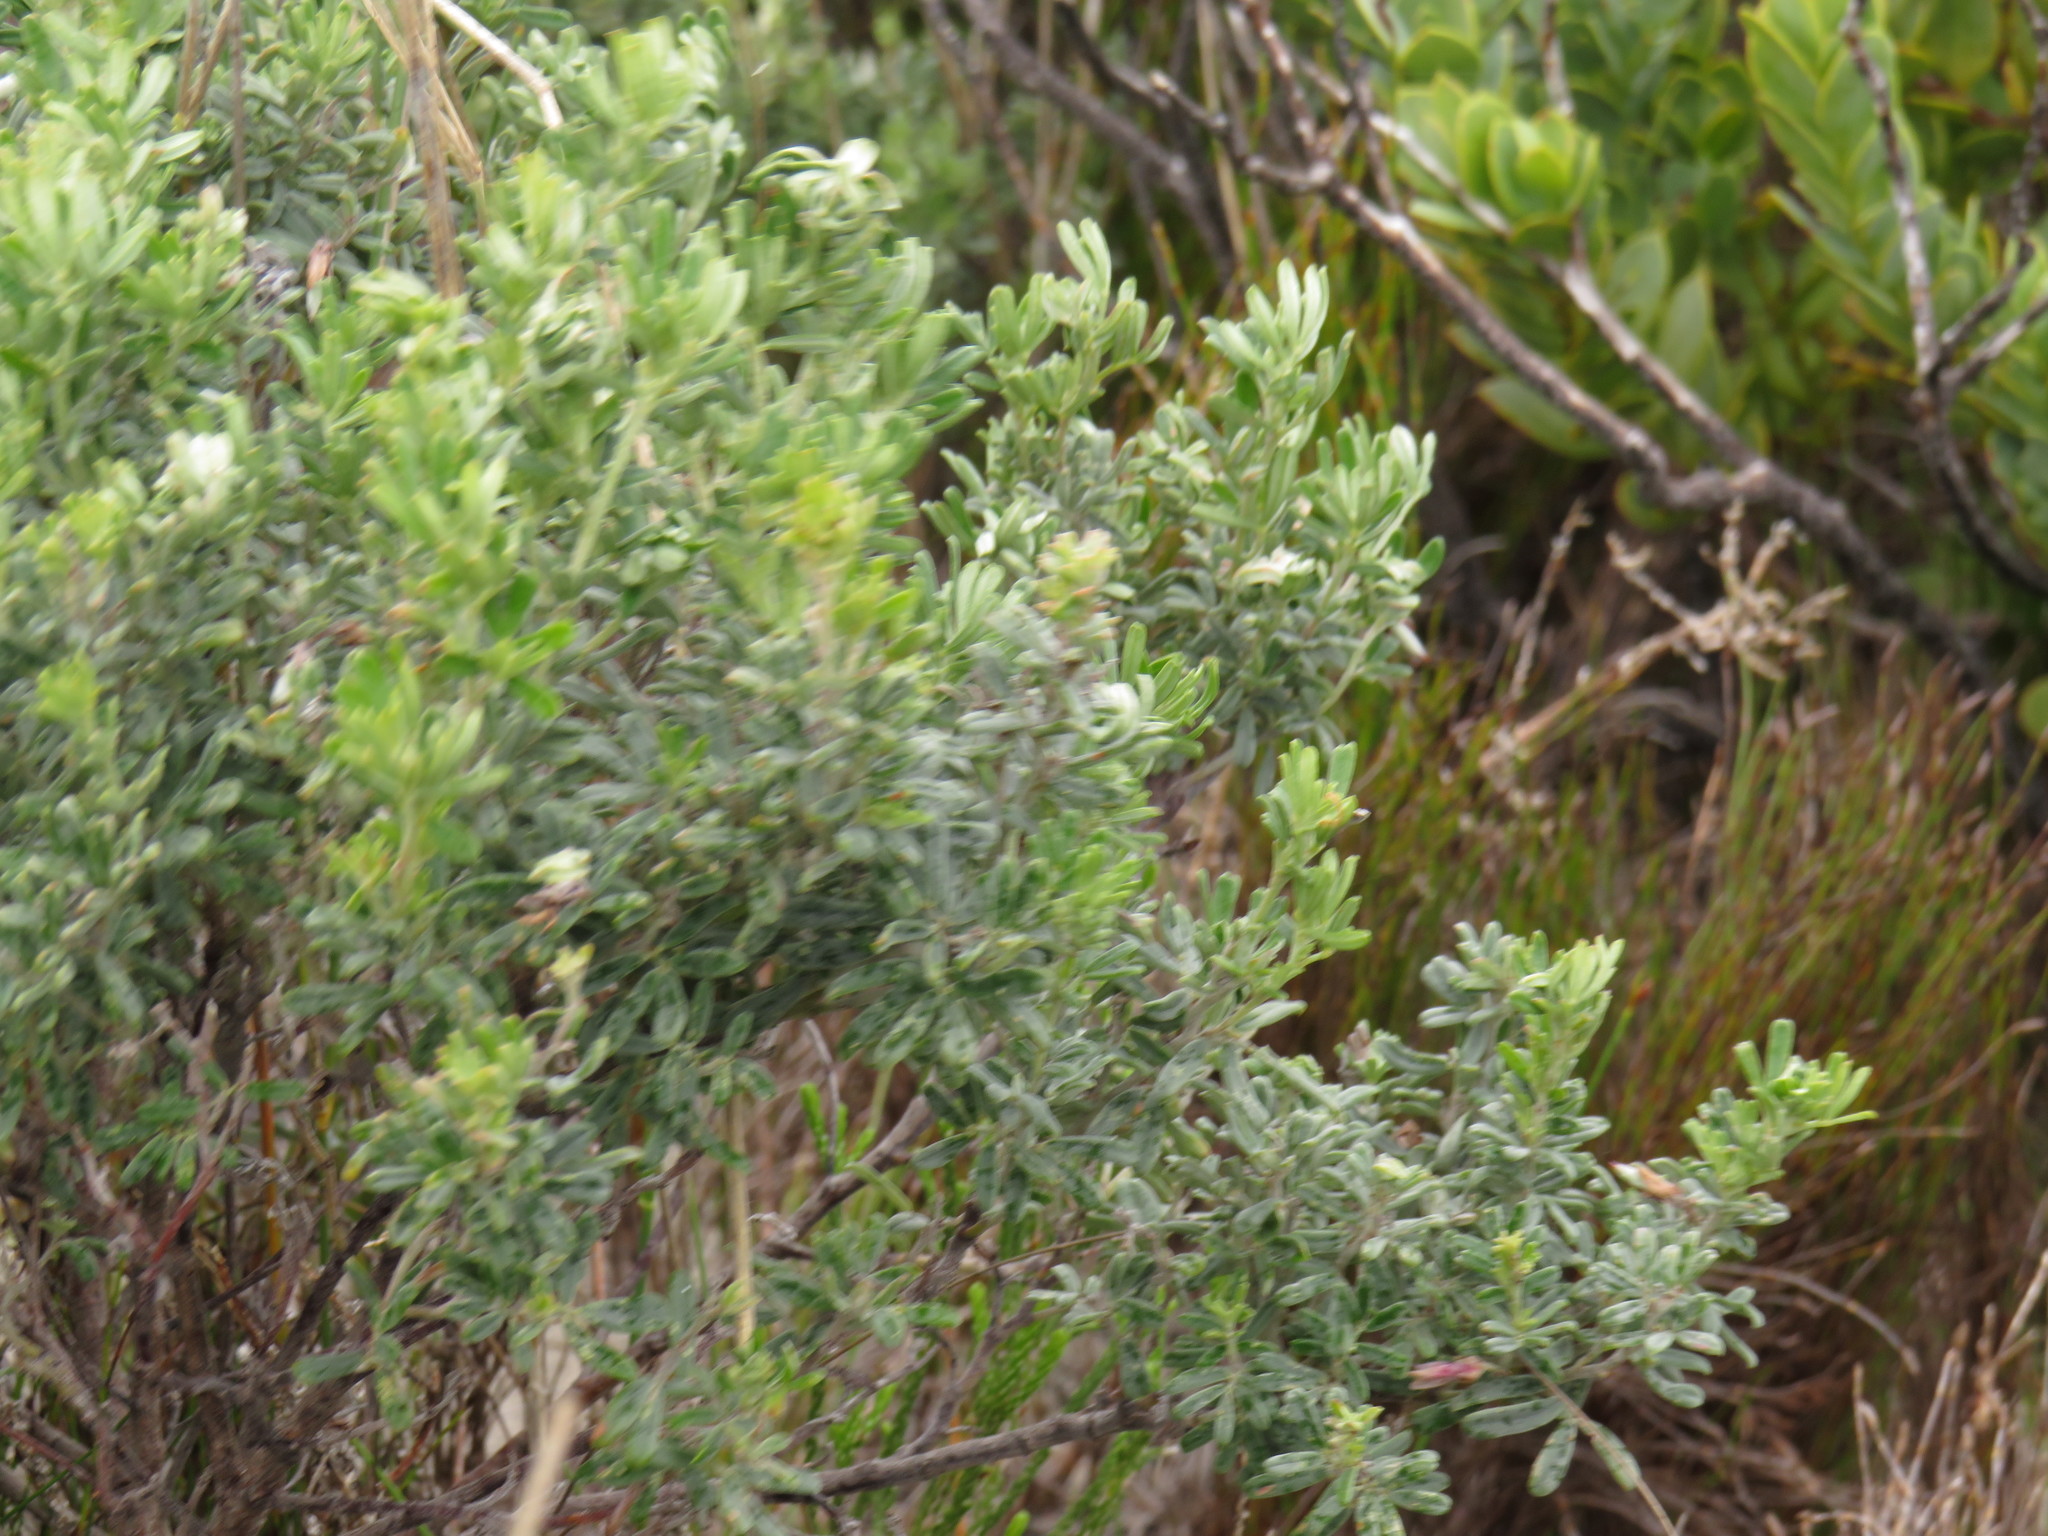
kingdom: Plantae
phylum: Tracheophyta
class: Magnoliopsida
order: Fabales
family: Fabaceae
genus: Indigofera
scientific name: Indigofera brachystachya
